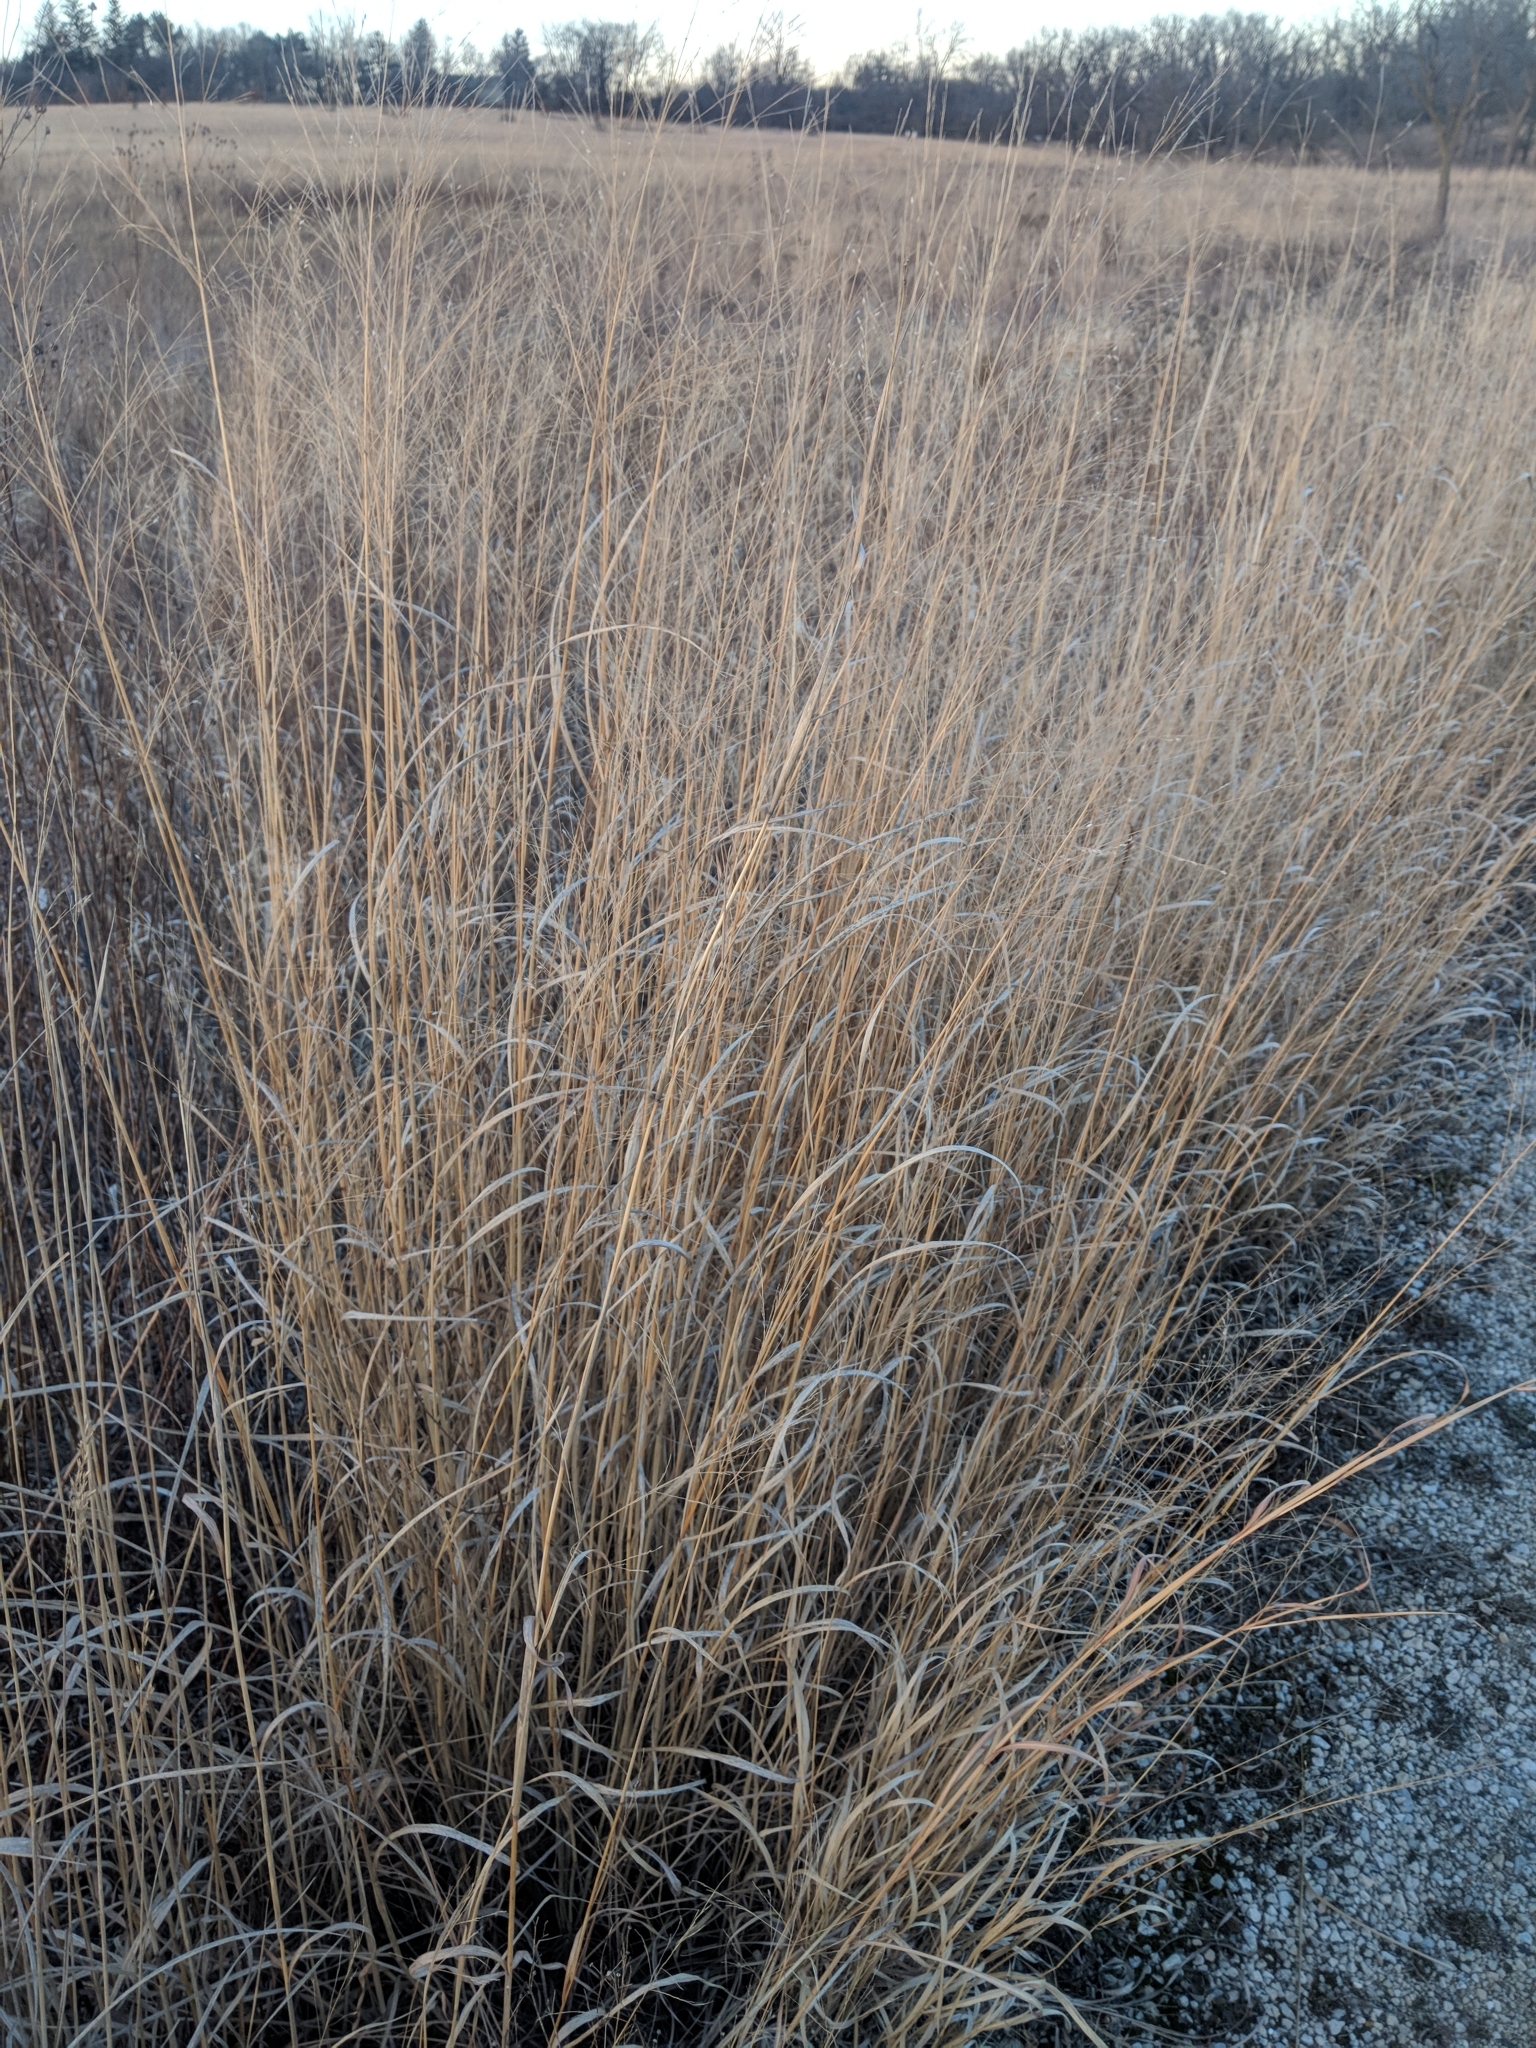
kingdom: Plantae
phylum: Tracheophyta
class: Liliopsida
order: Poales
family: Poaceae
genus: Panicum
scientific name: Panicum virgatum
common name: Switchgrass
